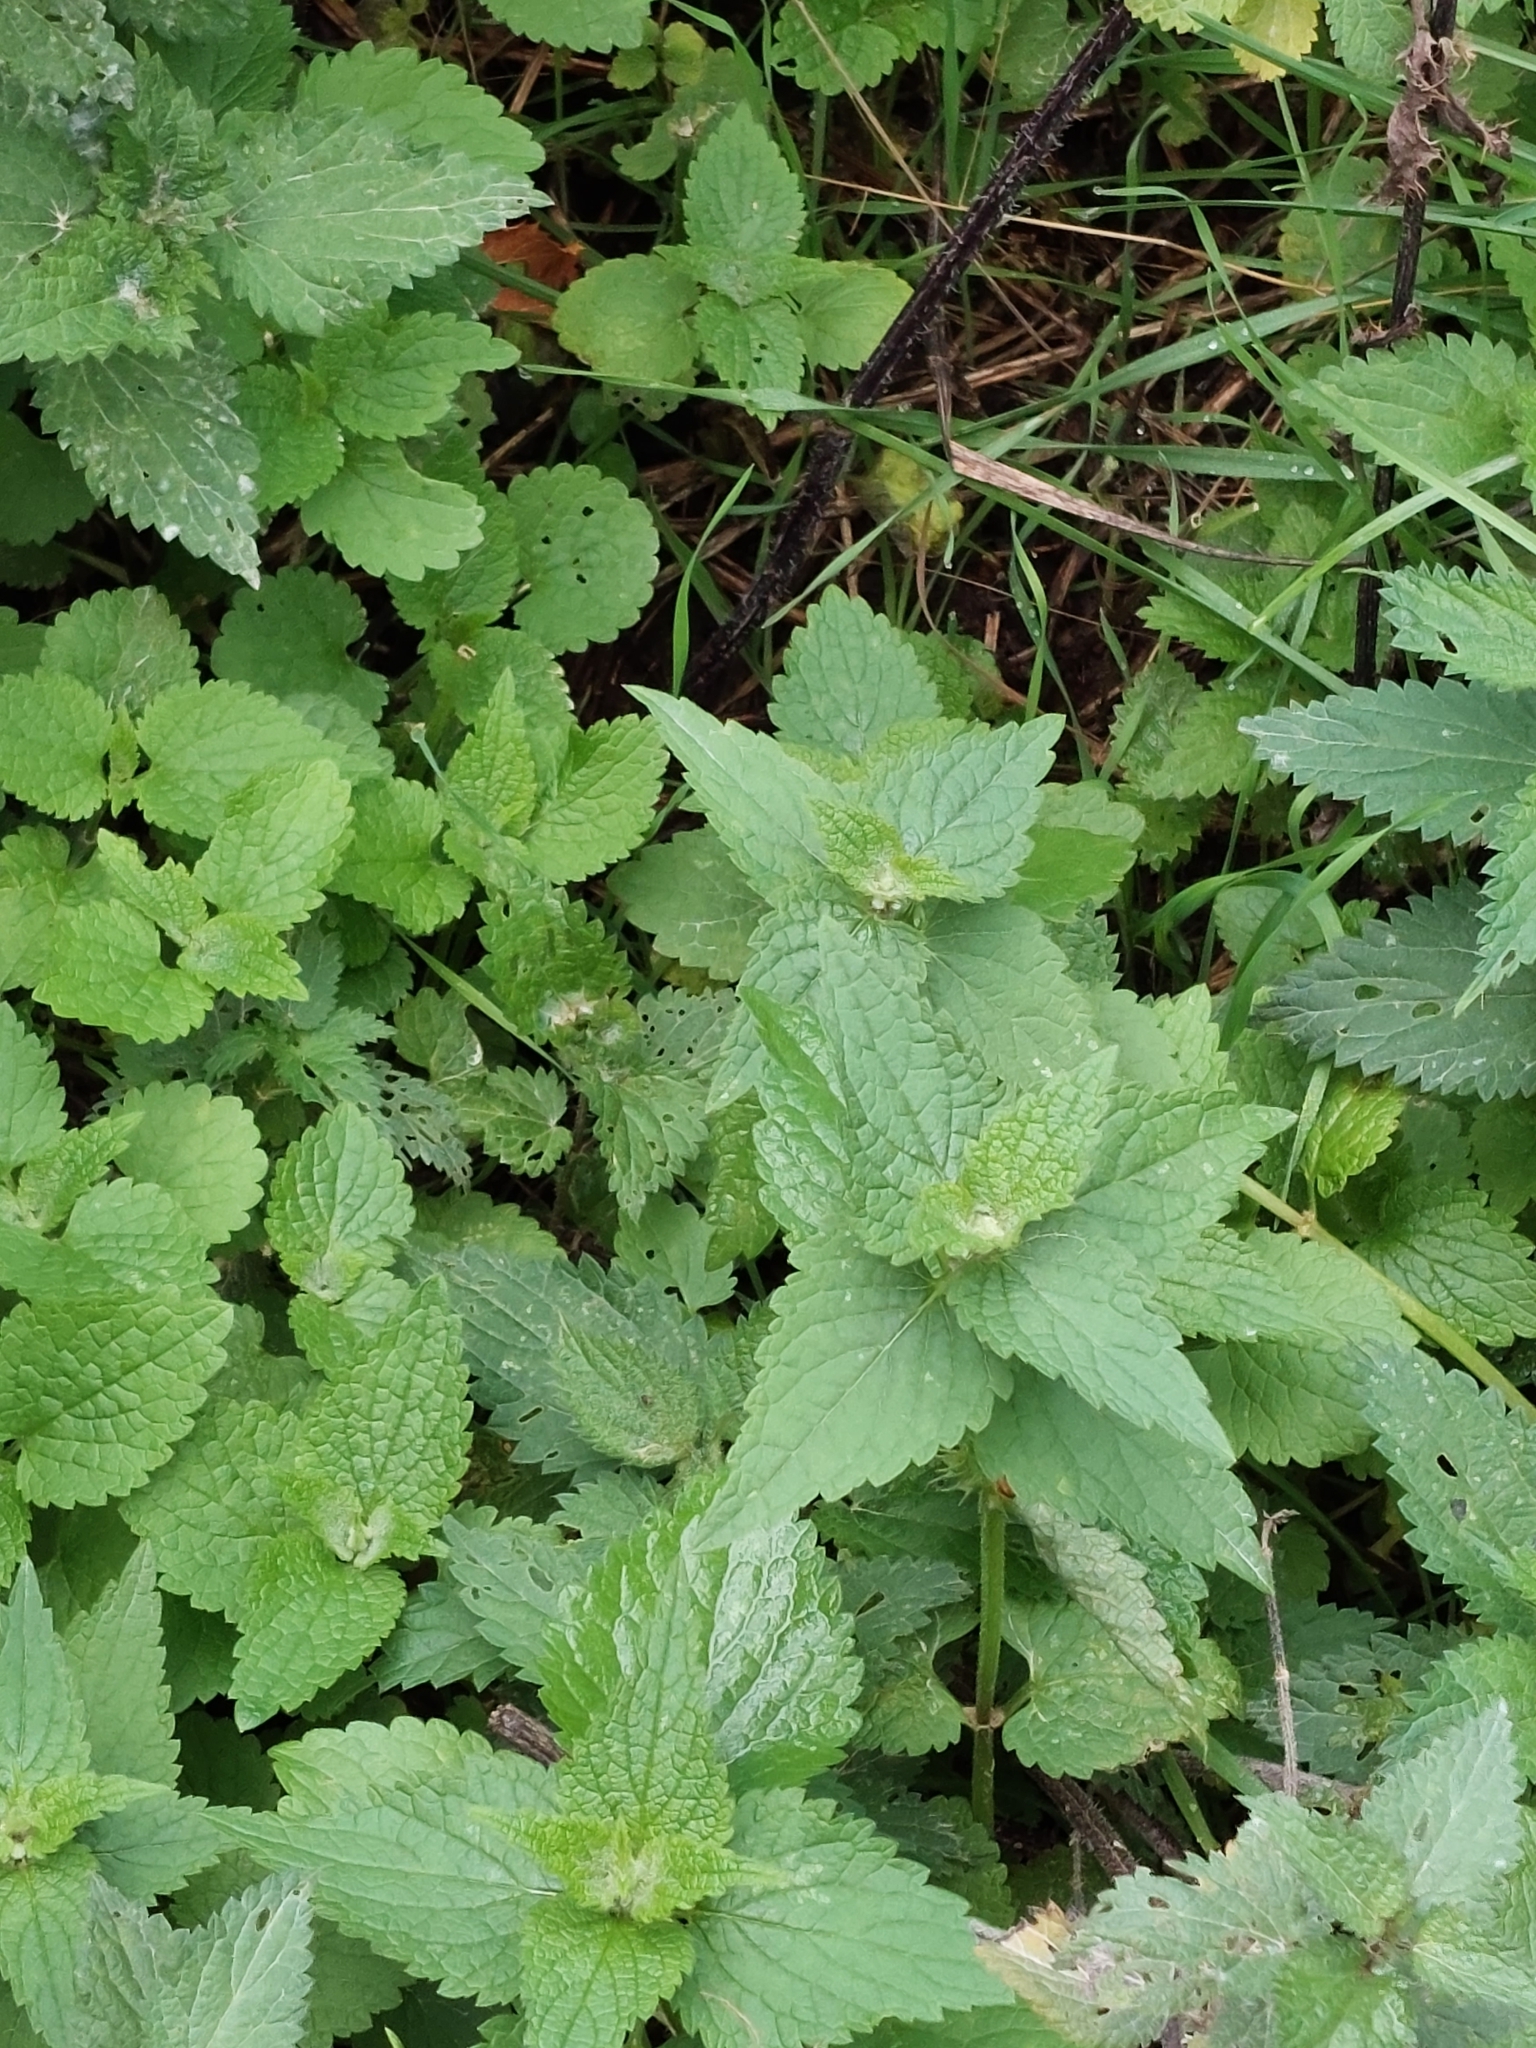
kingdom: Plantae
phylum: Tracheophyta
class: Magnoliopsida
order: Rosales
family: Urticaceae
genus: Urtica
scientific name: Urtica dioica
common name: Common nettle
